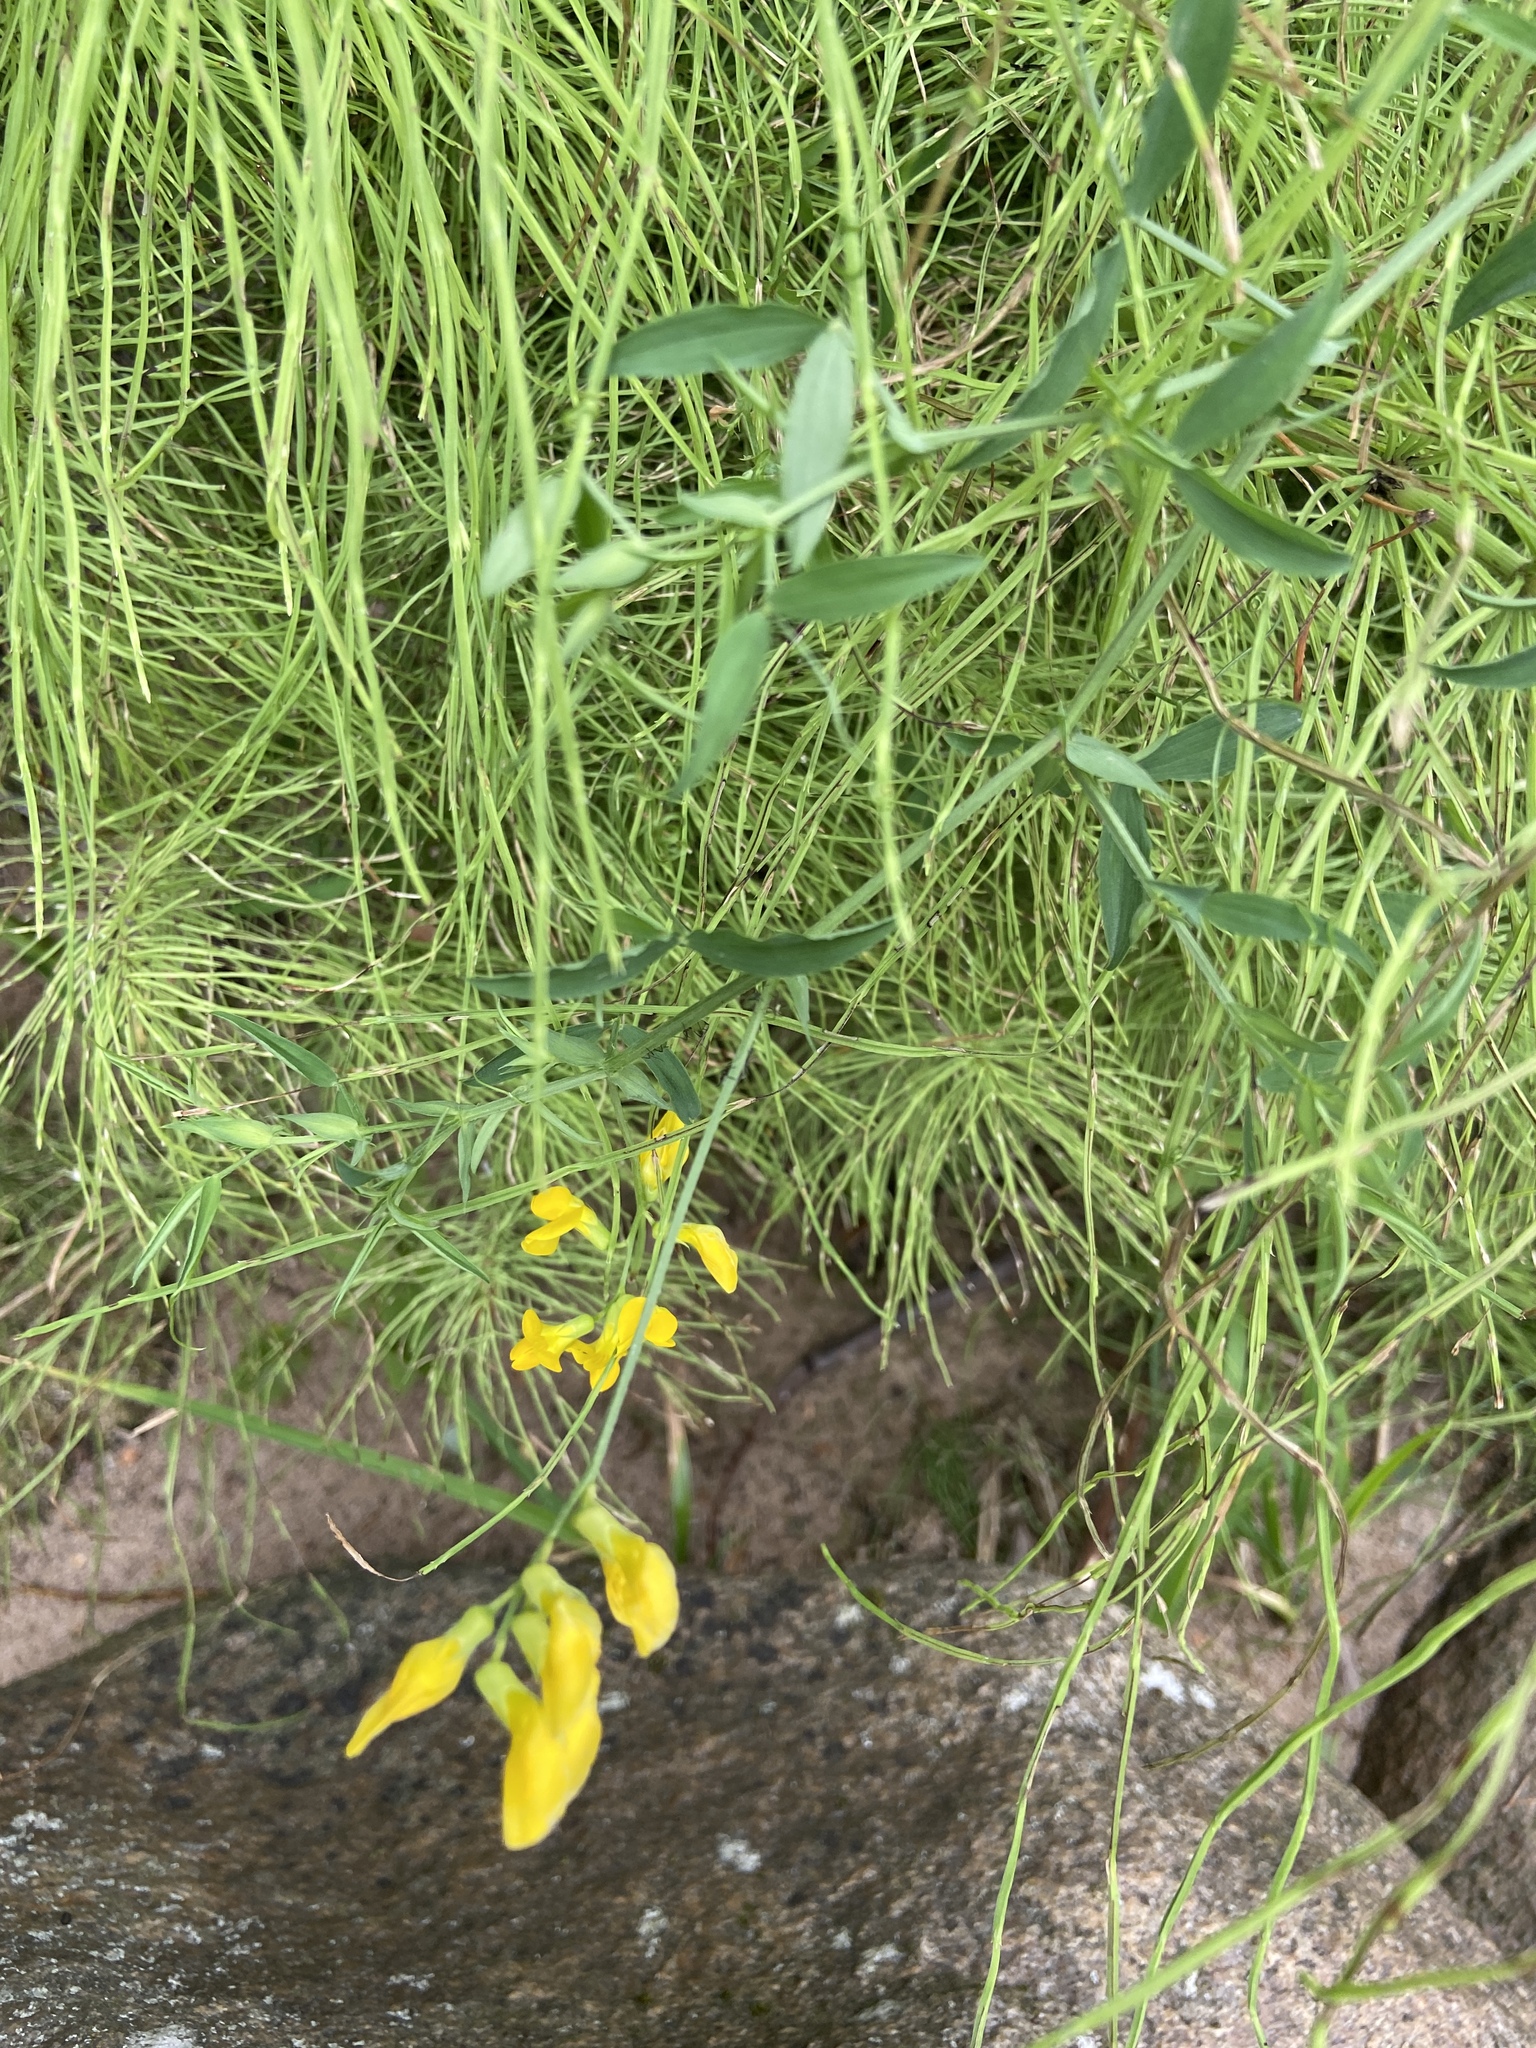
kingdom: Plantae
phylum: Tracheophyta
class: Magnoliopsida
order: Fabales
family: Fabaceae
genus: Lathyrus
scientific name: Lathyrus pratensis
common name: Meadow vetchling
